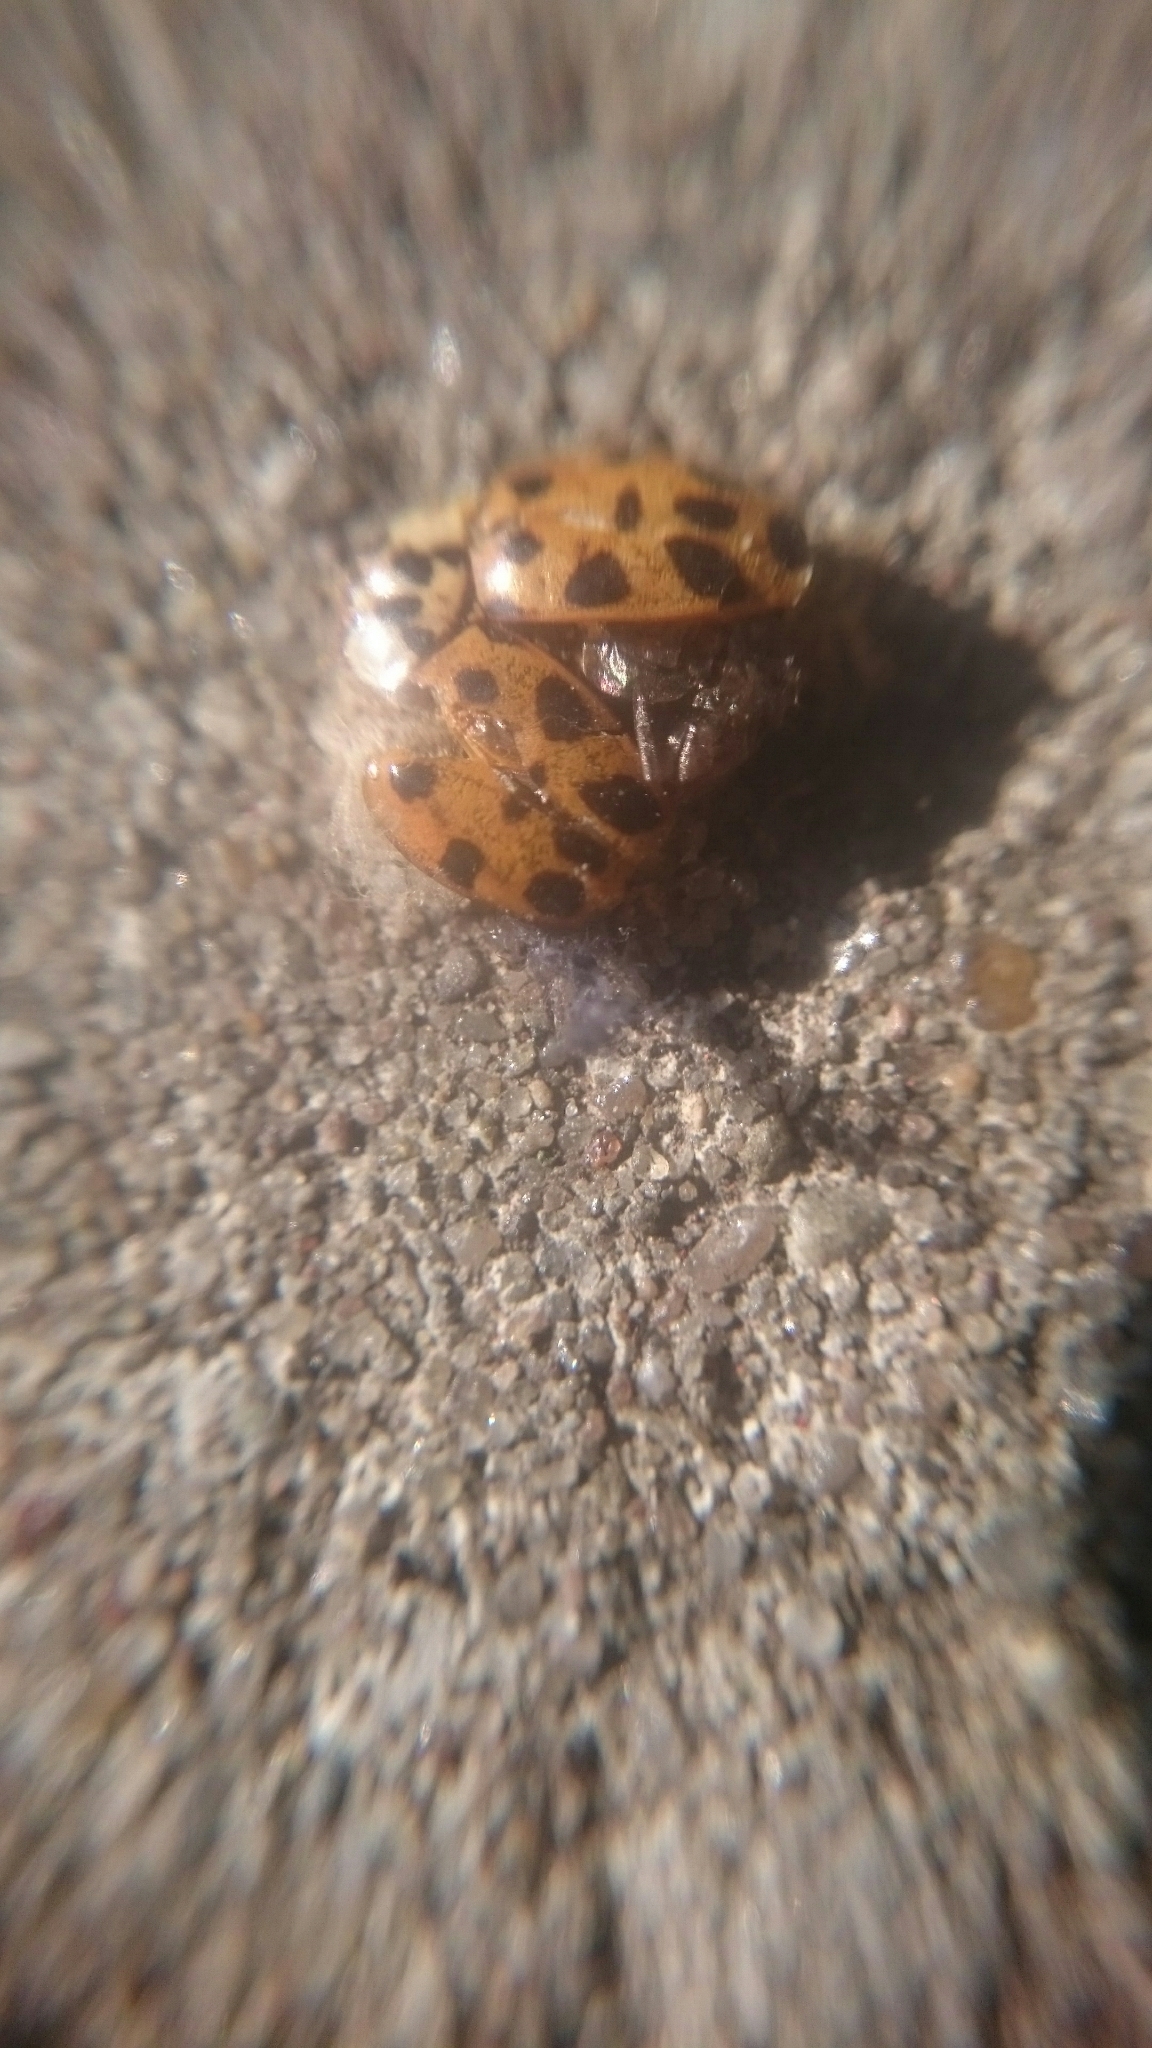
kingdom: Animalia
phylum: Arthropoda
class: Insecta
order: Coleoptera
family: Coccinellidae
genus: Harmonia
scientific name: Harmonia axyridis
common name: Harlequin ladybird
